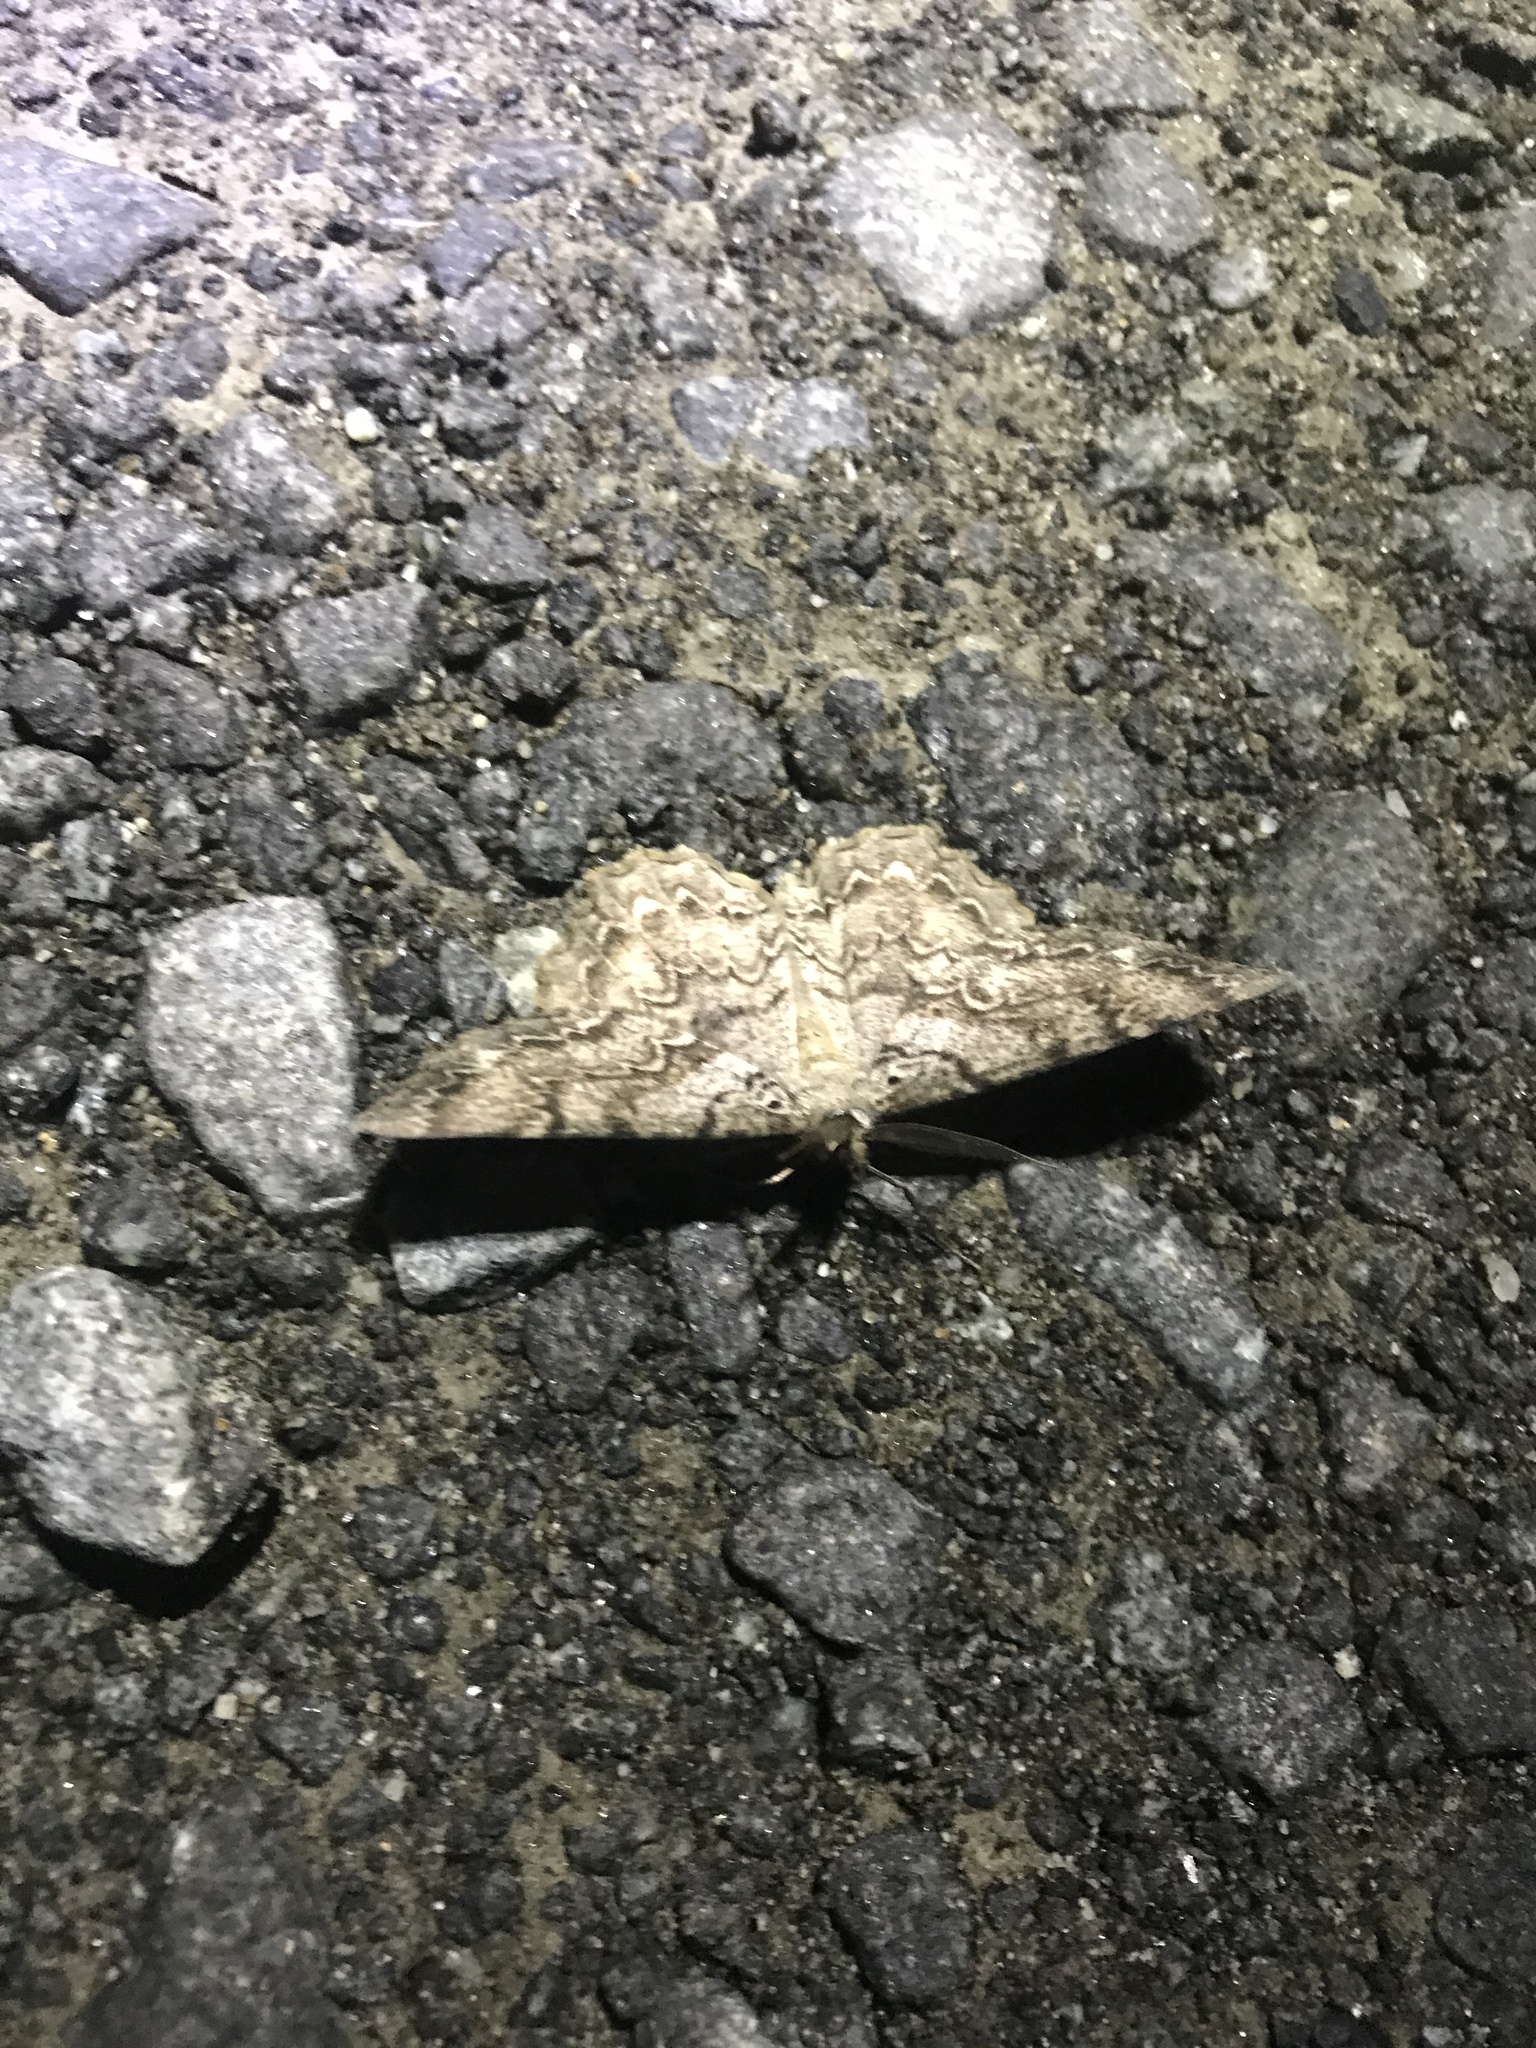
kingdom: Animalia
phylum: Arthropoda
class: Insecta
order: Lepidoptera
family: Geometridae
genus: Epimecis
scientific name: Epimecis hortaria
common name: Tulip-tree beauty
